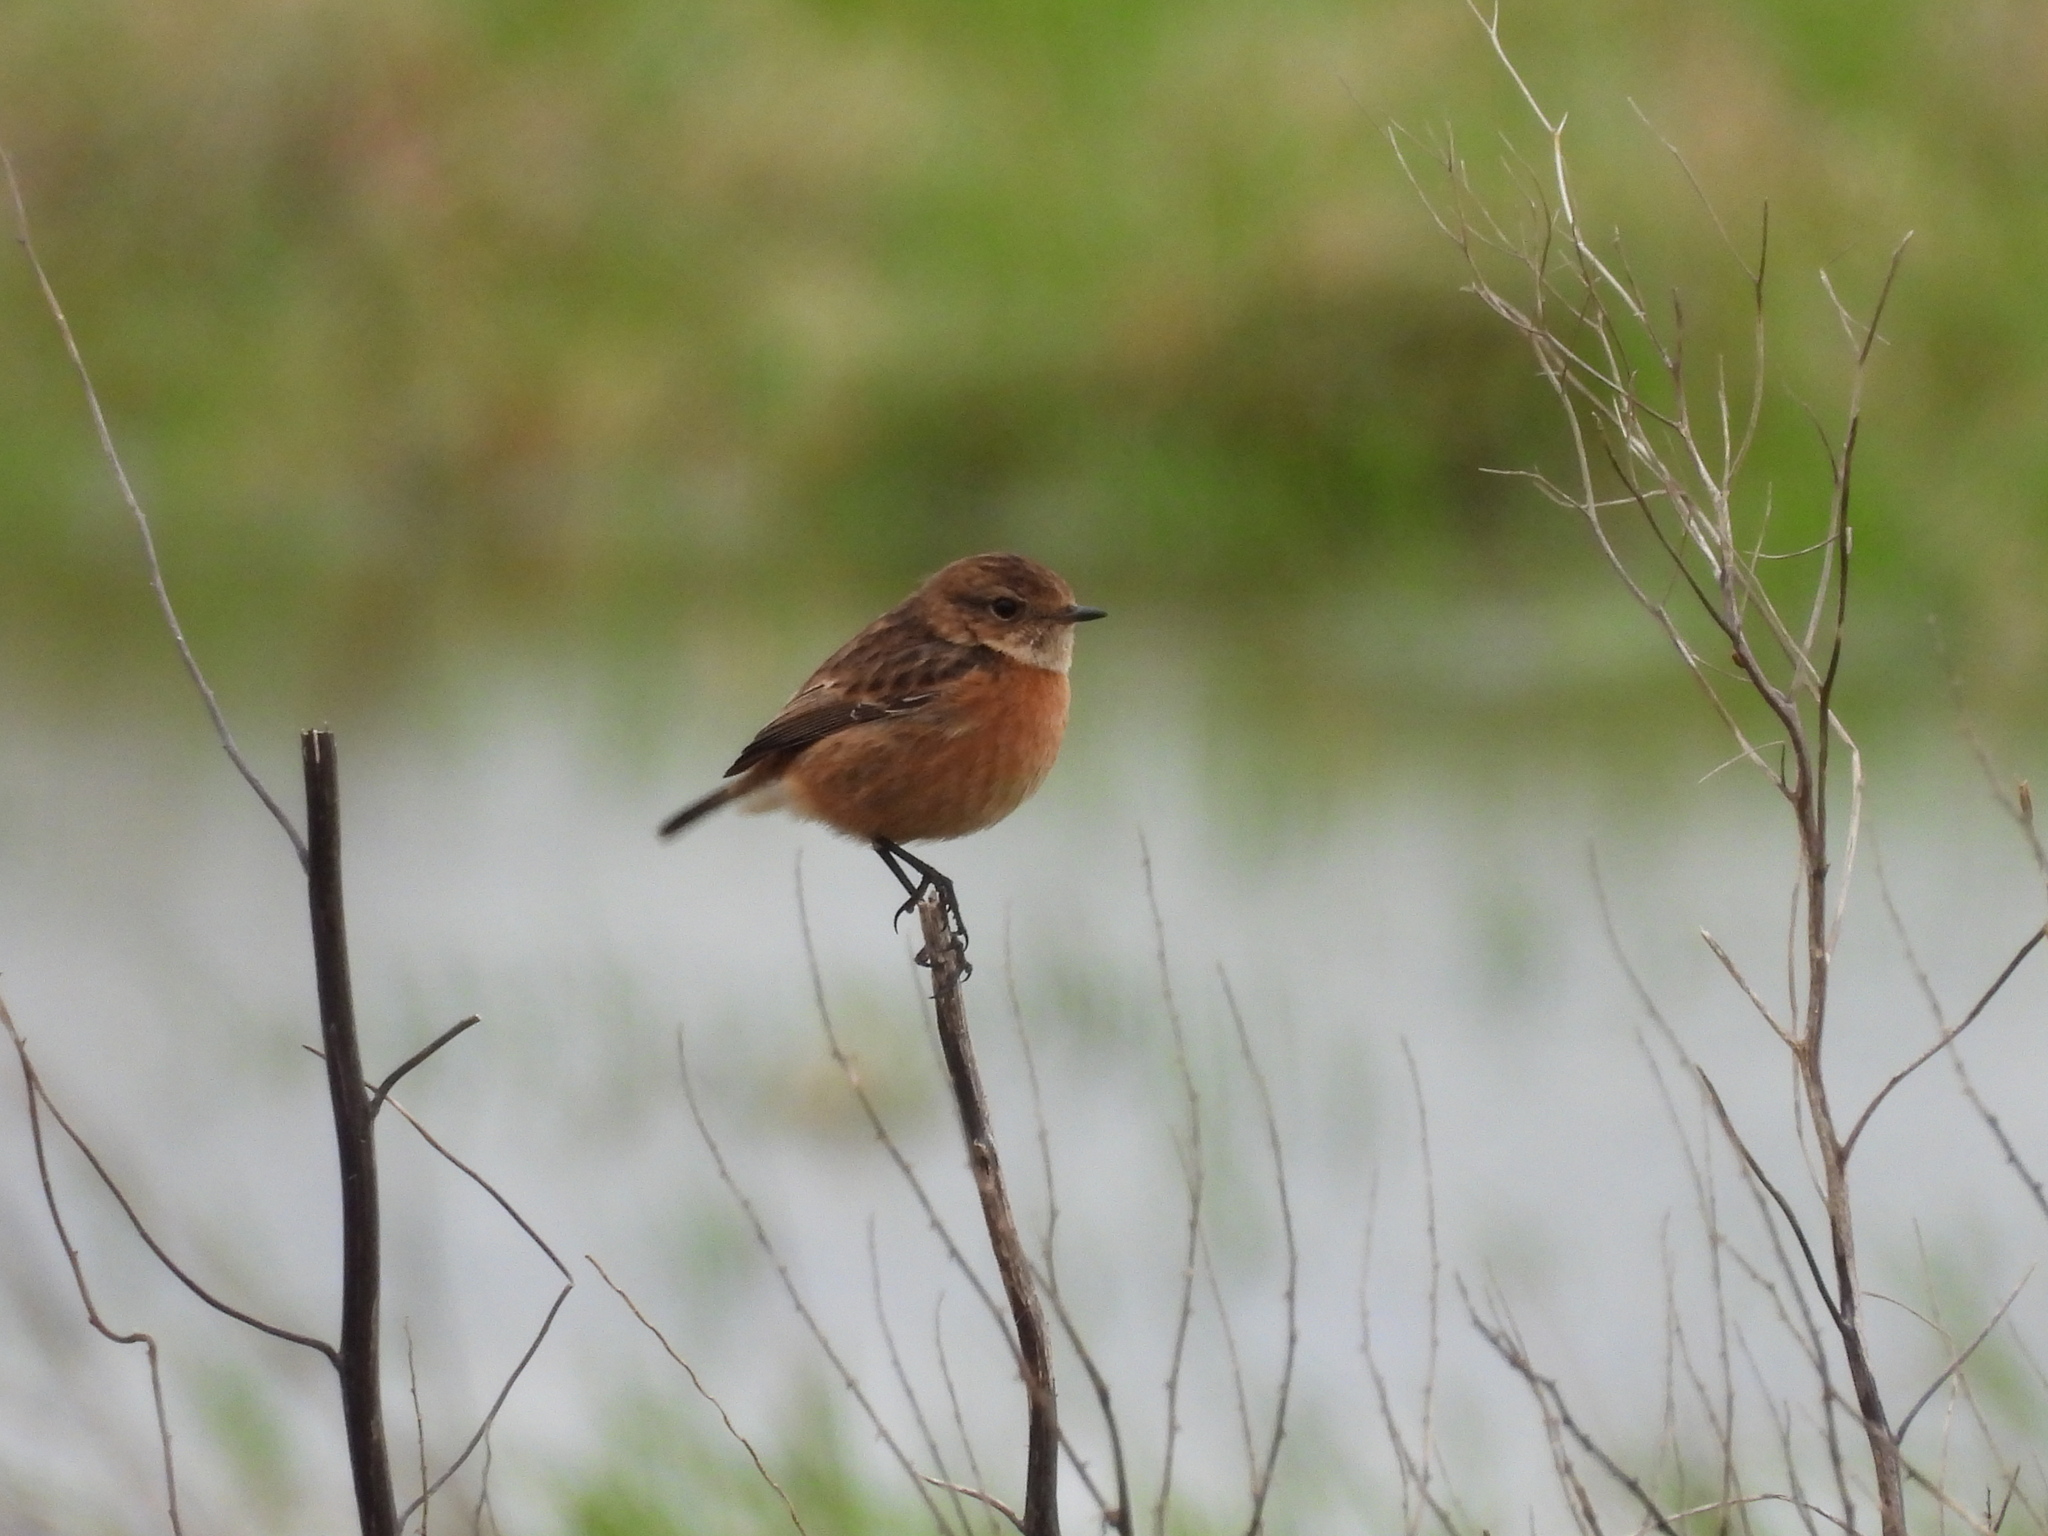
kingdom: Animalia
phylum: Chordata
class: Aves
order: Passeriformes
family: Muscicapidae
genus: Saxicola
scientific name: Saxicola rubicola
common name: European stonechat
